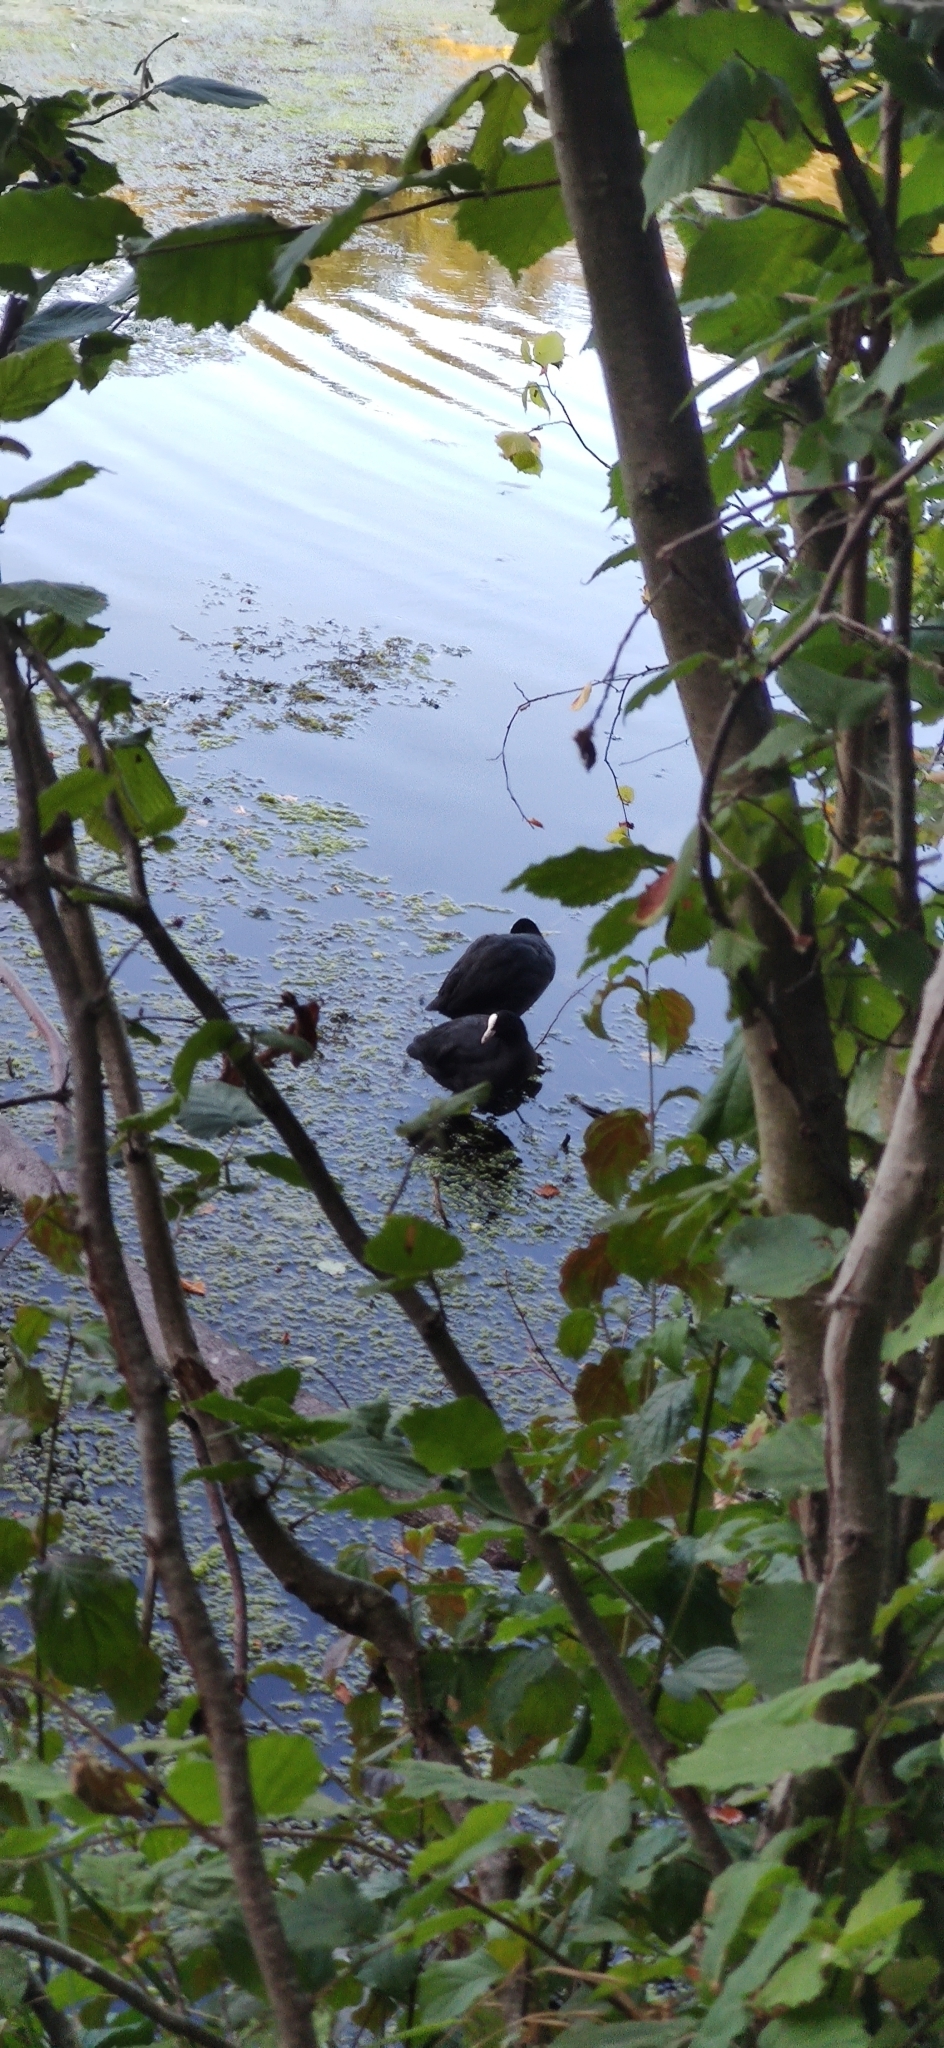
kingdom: Animalia
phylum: Chordata
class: Aves
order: Gruiformes
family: Rallidae
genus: Fulica
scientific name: Fulica atra
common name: Eurasian coot
